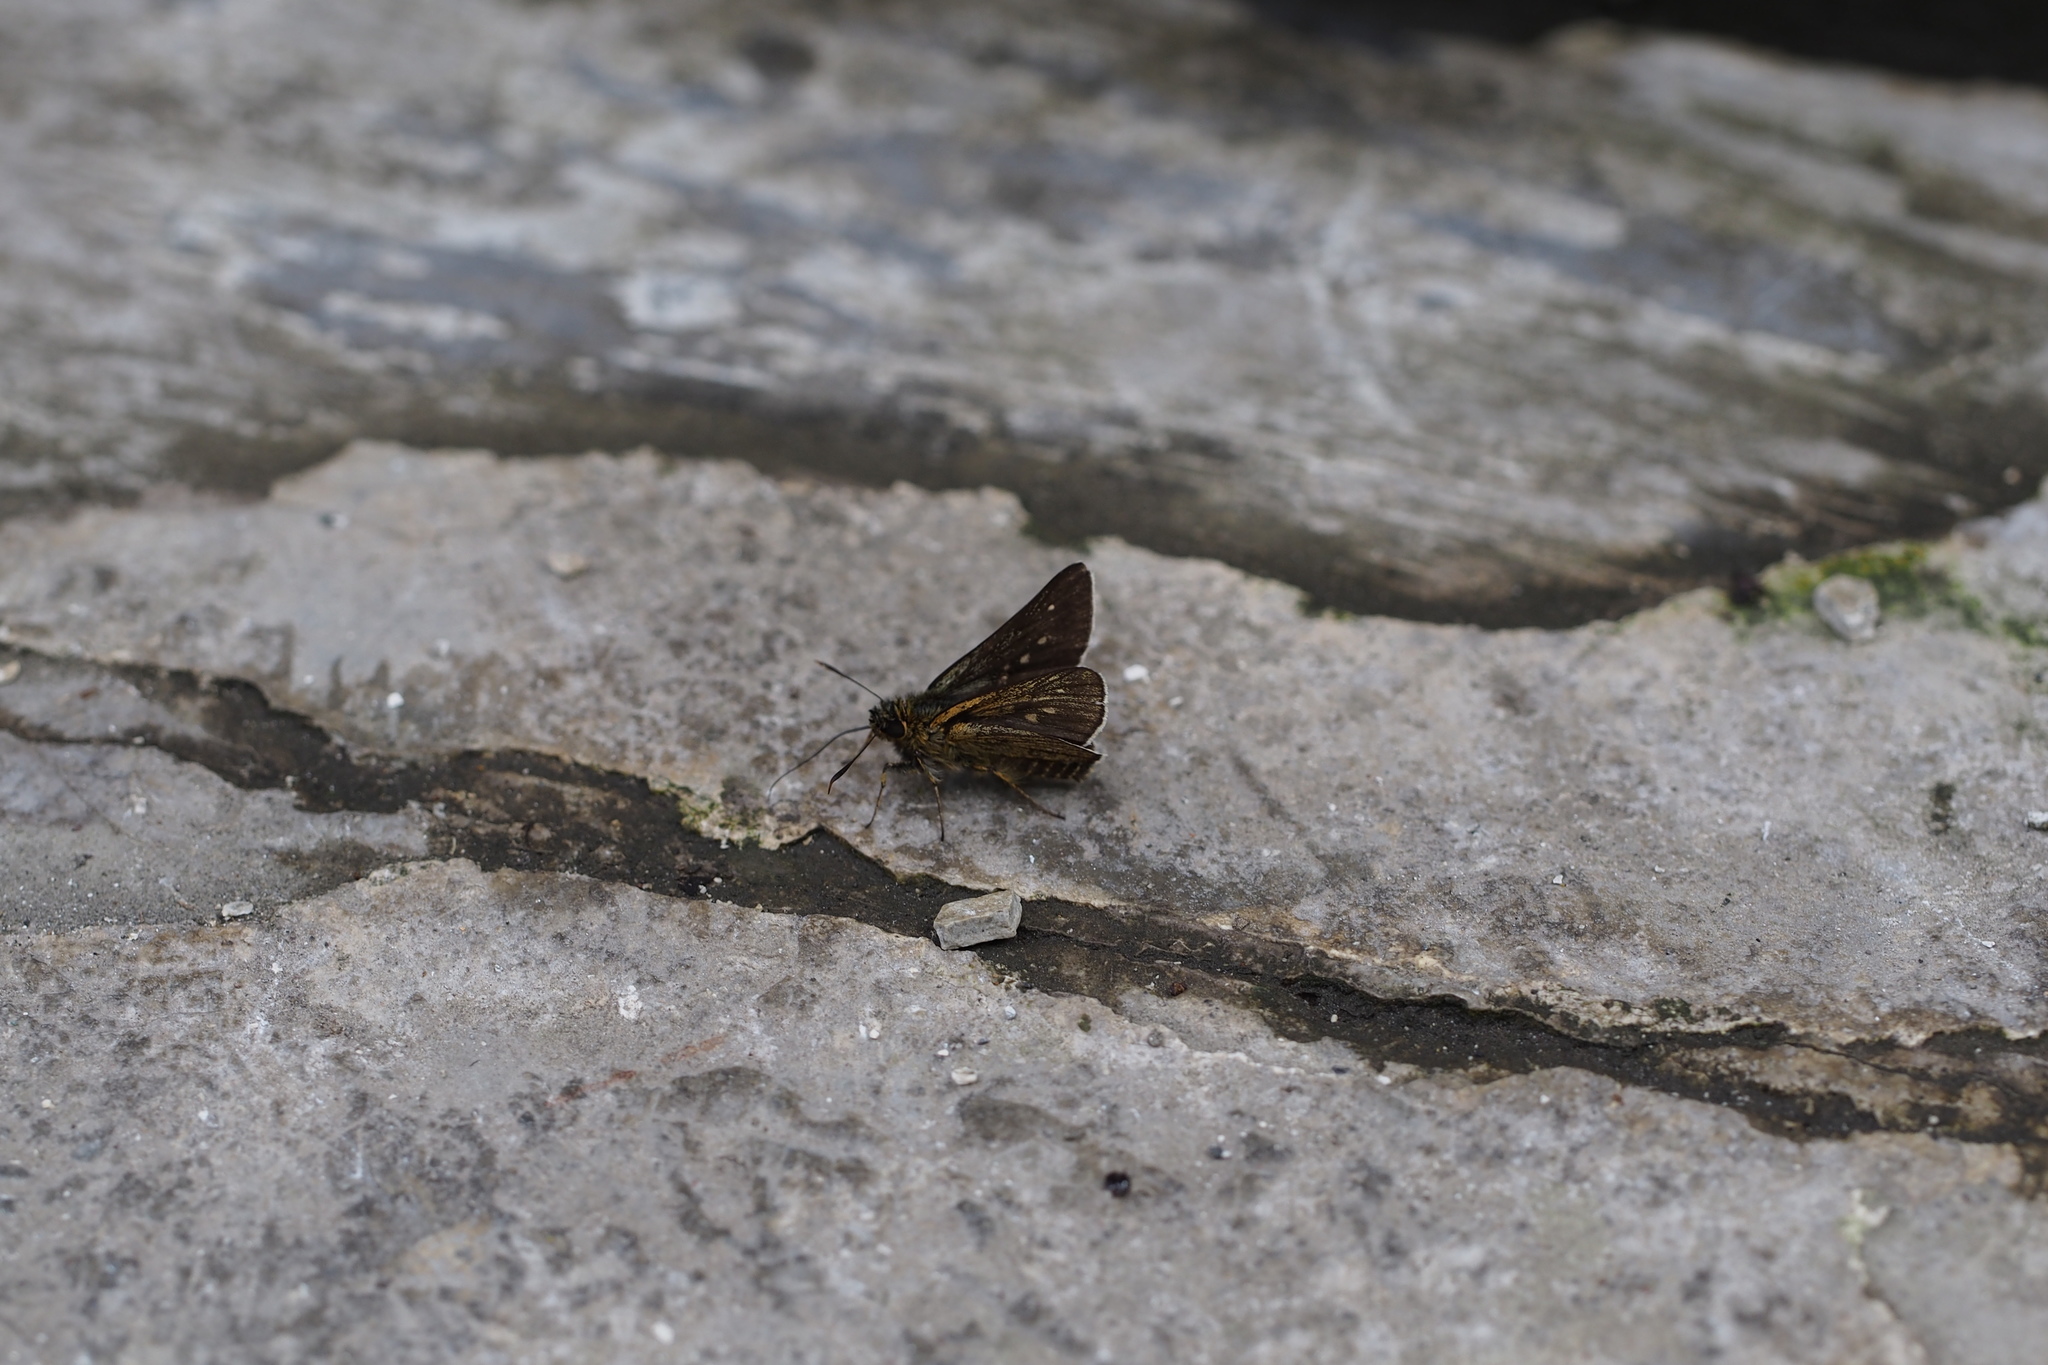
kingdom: Animalia
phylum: Arthropoda
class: Insecta
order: Lepidoptera
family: Hesperiidae
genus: Thoressa
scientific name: Thoressa varia
